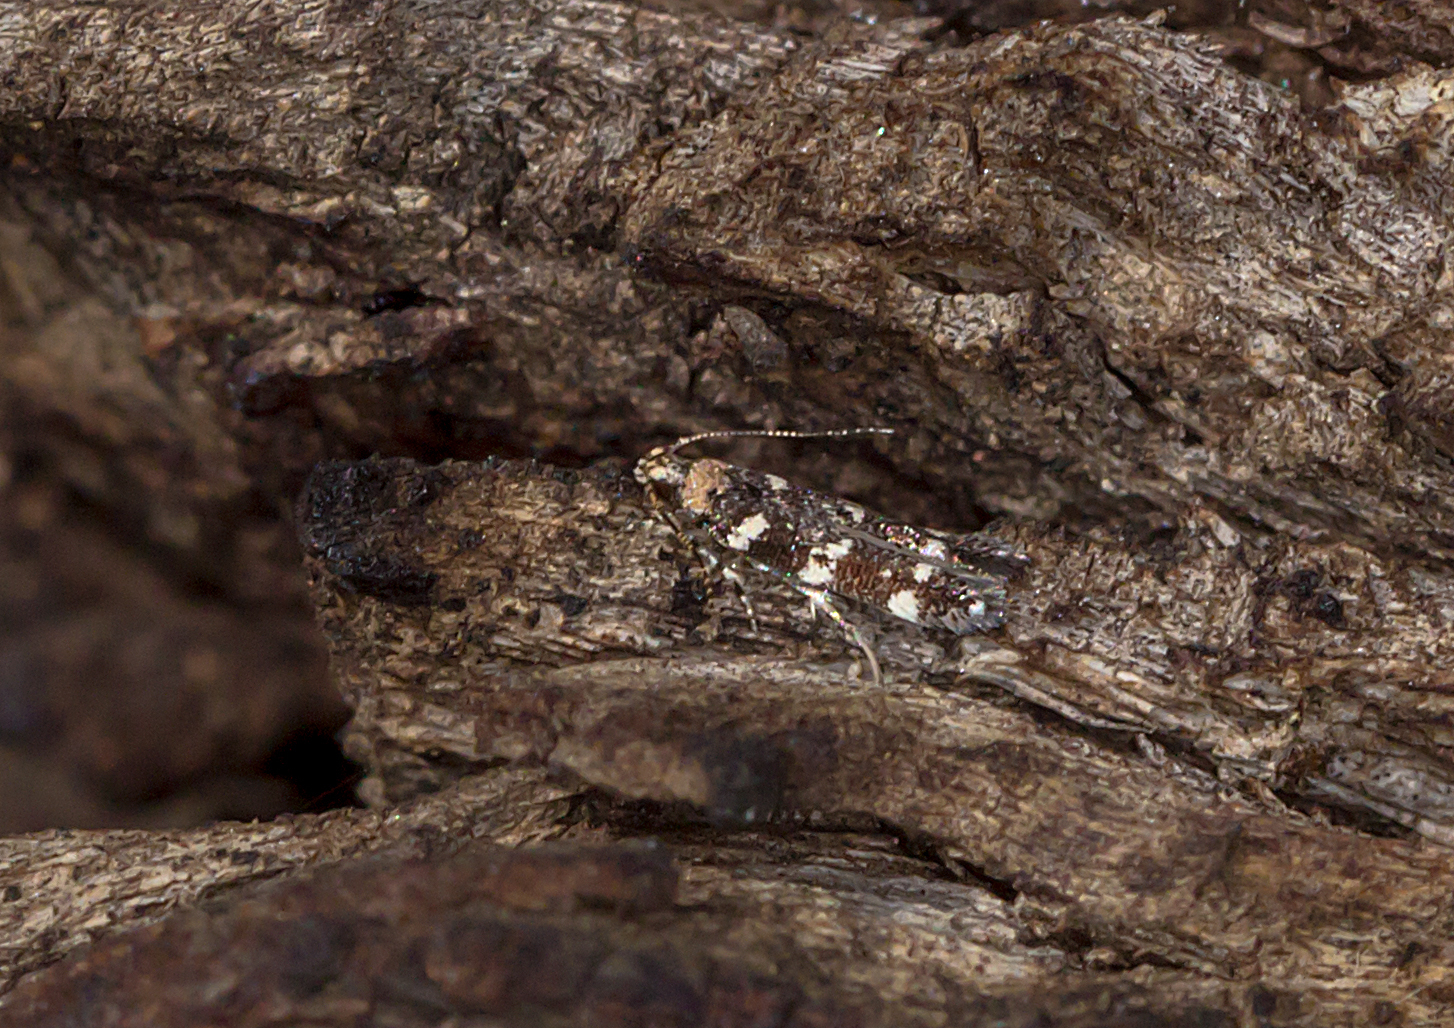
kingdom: Animalia
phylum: Arthropoda
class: Insecta
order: Lepidoptera
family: Cosmopterigidae
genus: Stagmatophora
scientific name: Stagmatophora argyrostrepta
